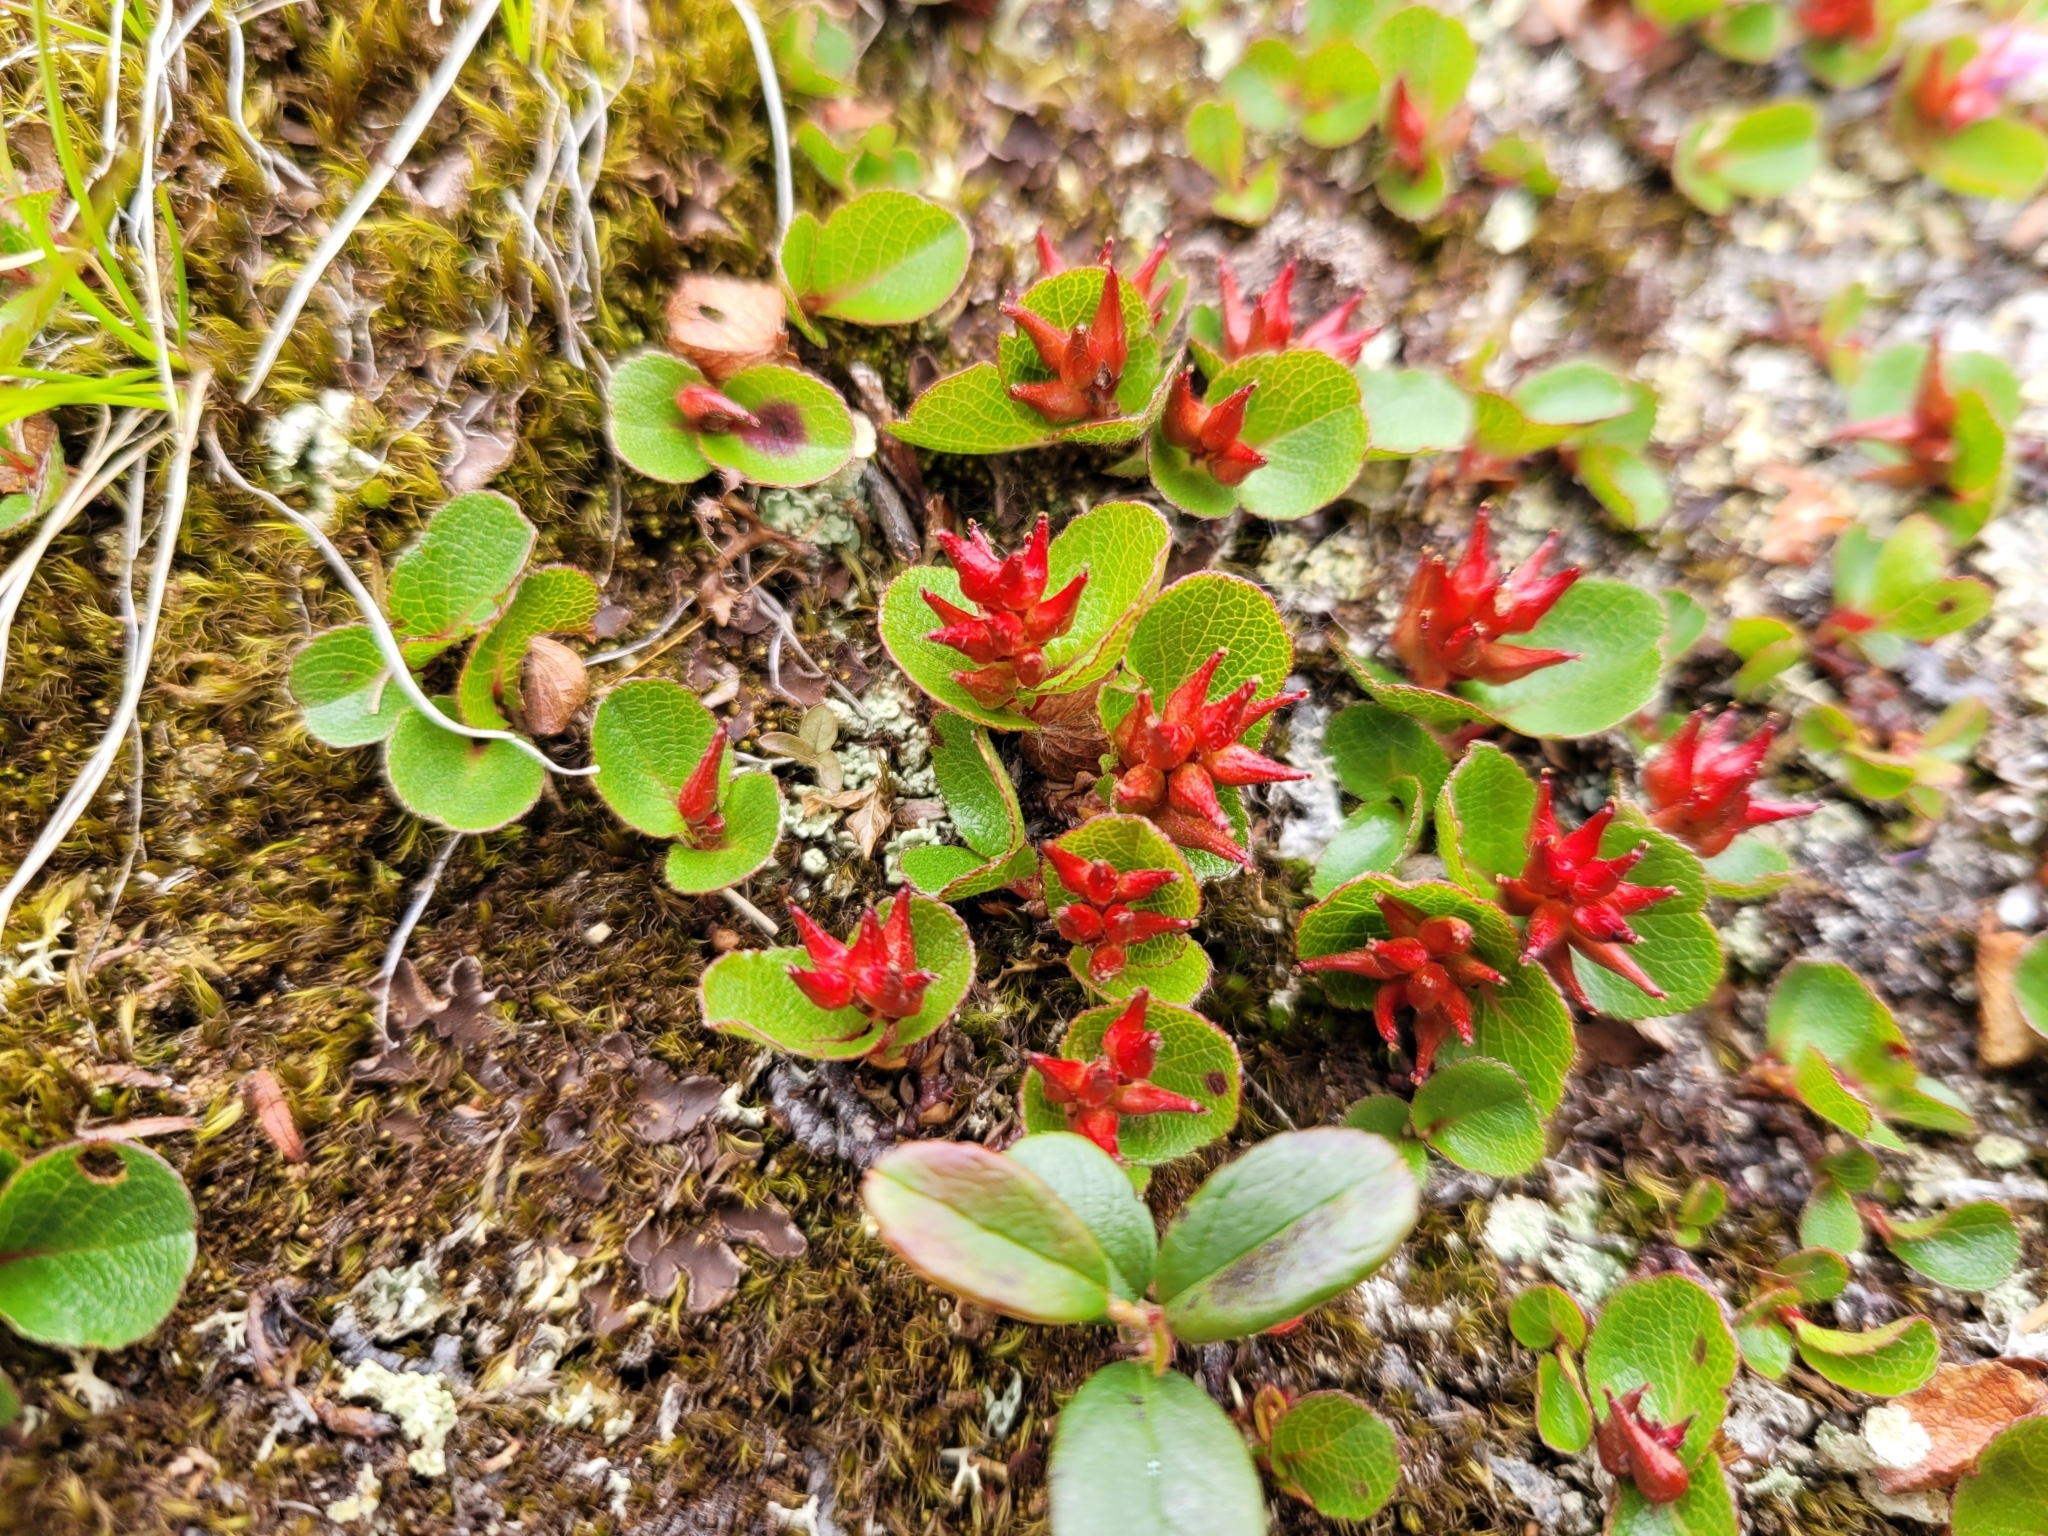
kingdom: Plantae
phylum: Tracheophyta
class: Magnoliopsida
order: Malpighiales
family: Salicaceae
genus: Salix
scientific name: Salix herbacea
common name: Dwarf willow
